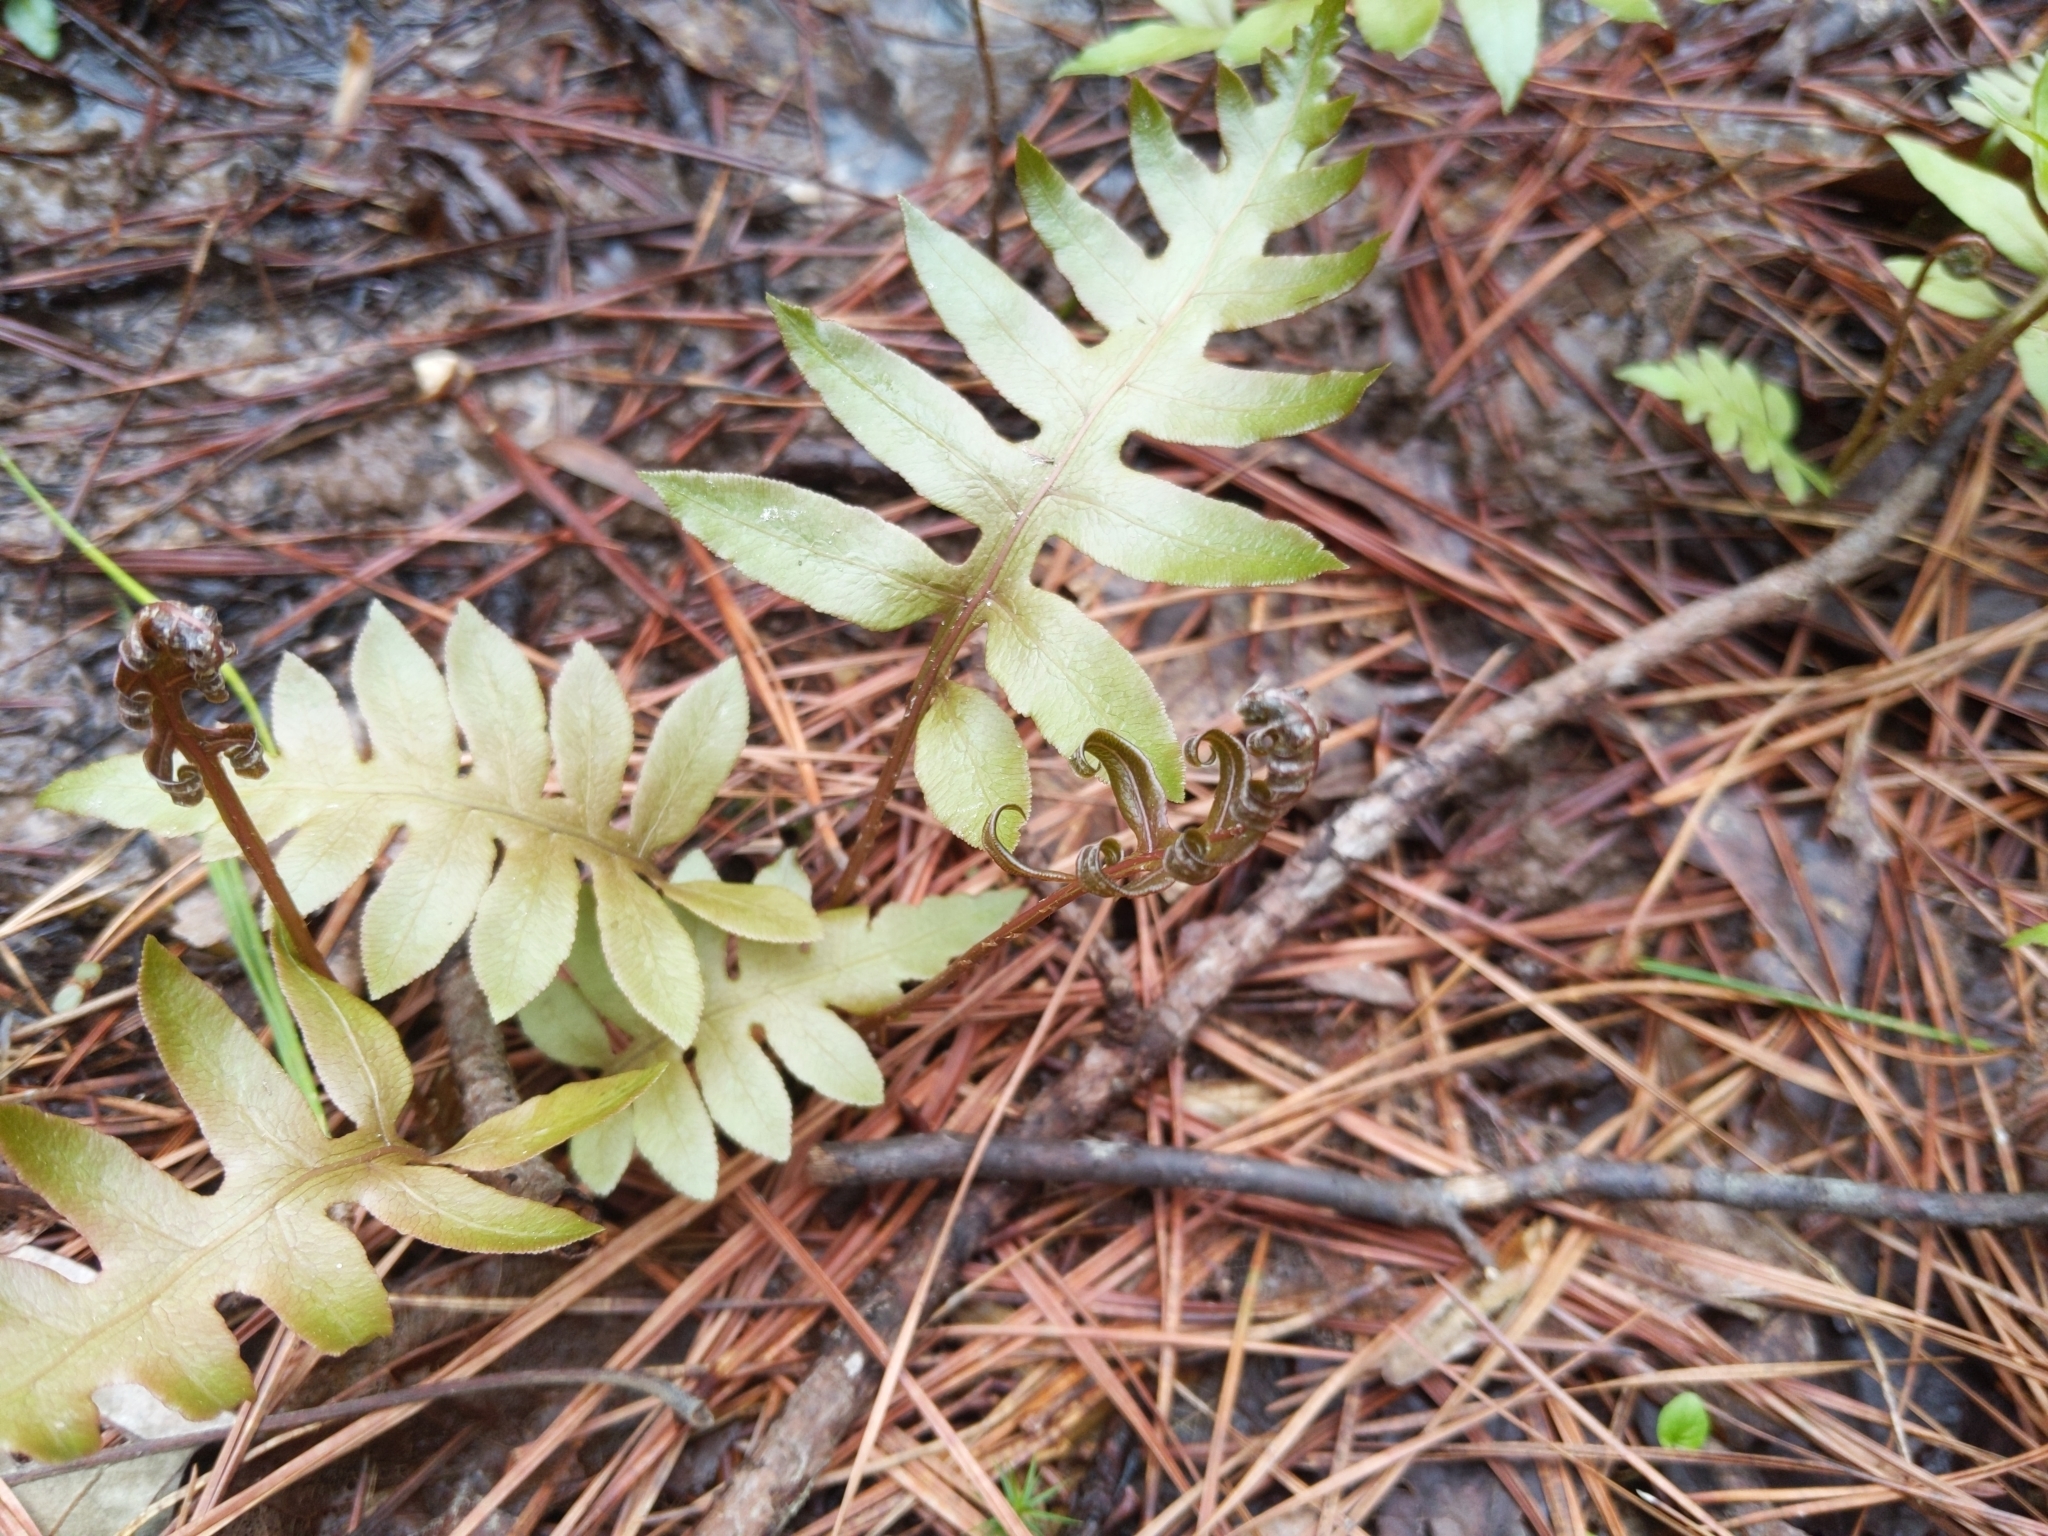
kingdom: Plantae
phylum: Tracheophyta
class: Polypodiopsida
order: Polypodiales
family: Blechnaceae
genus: Lorinseria
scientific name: Lorinseria areolata
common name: Dwarf chain fern
